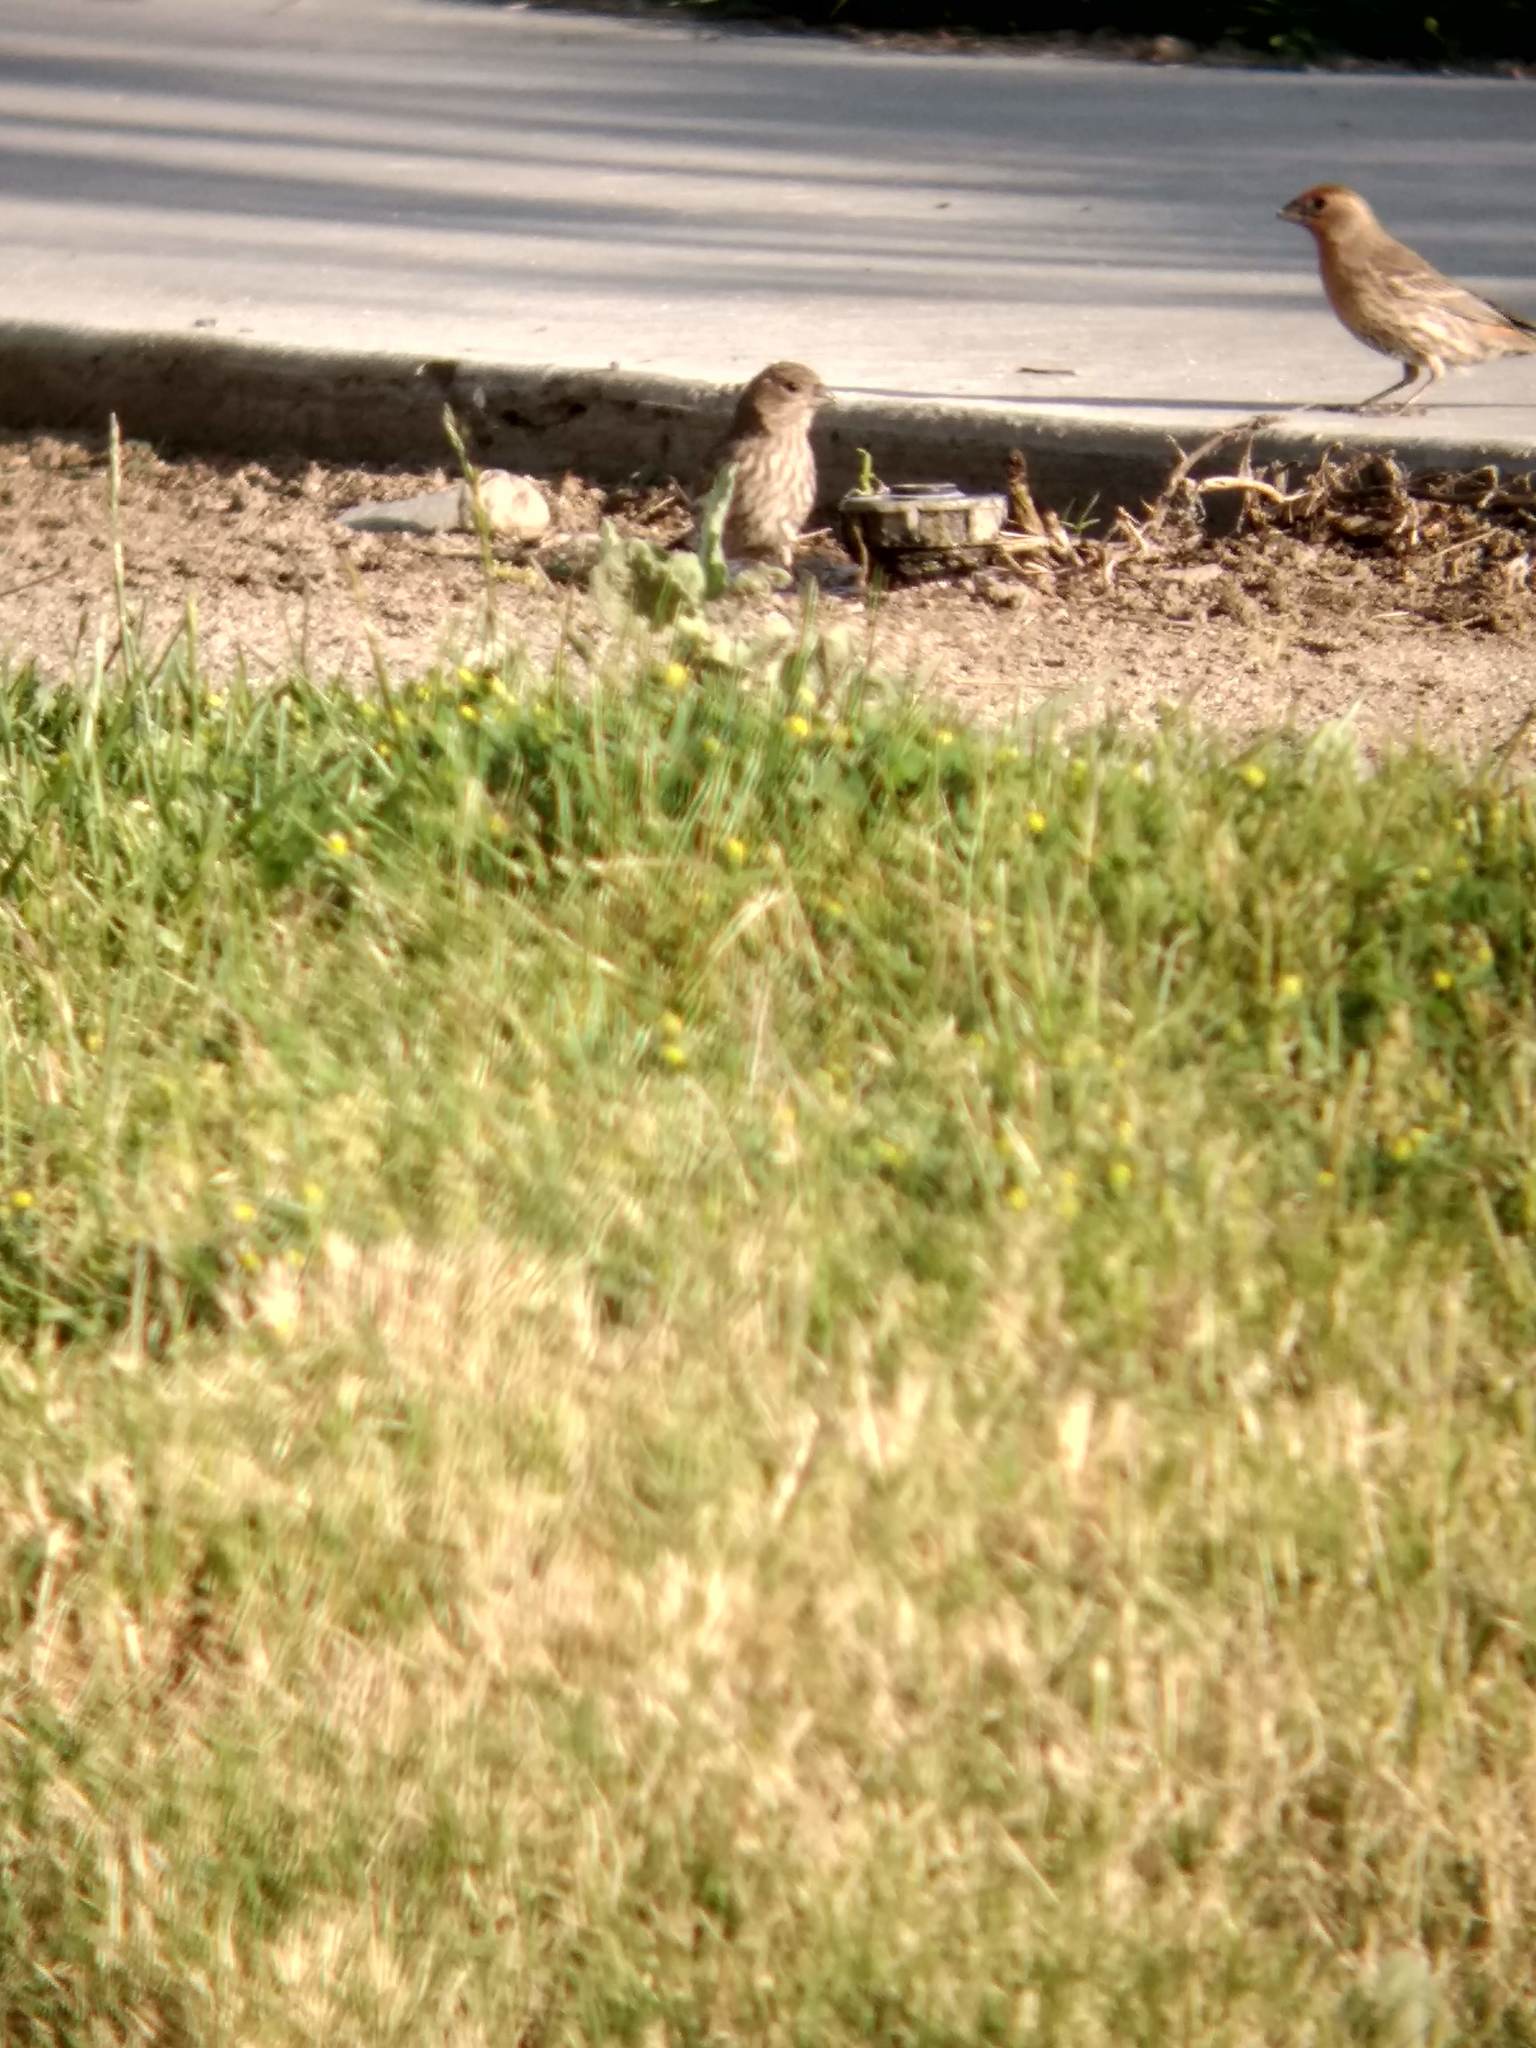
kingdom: Animalia
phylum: Chordata
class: Aves
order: Passeriformes
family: Fringillidae
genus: Haemorhous
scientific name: Haemorhous mexicanus
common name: House finch
